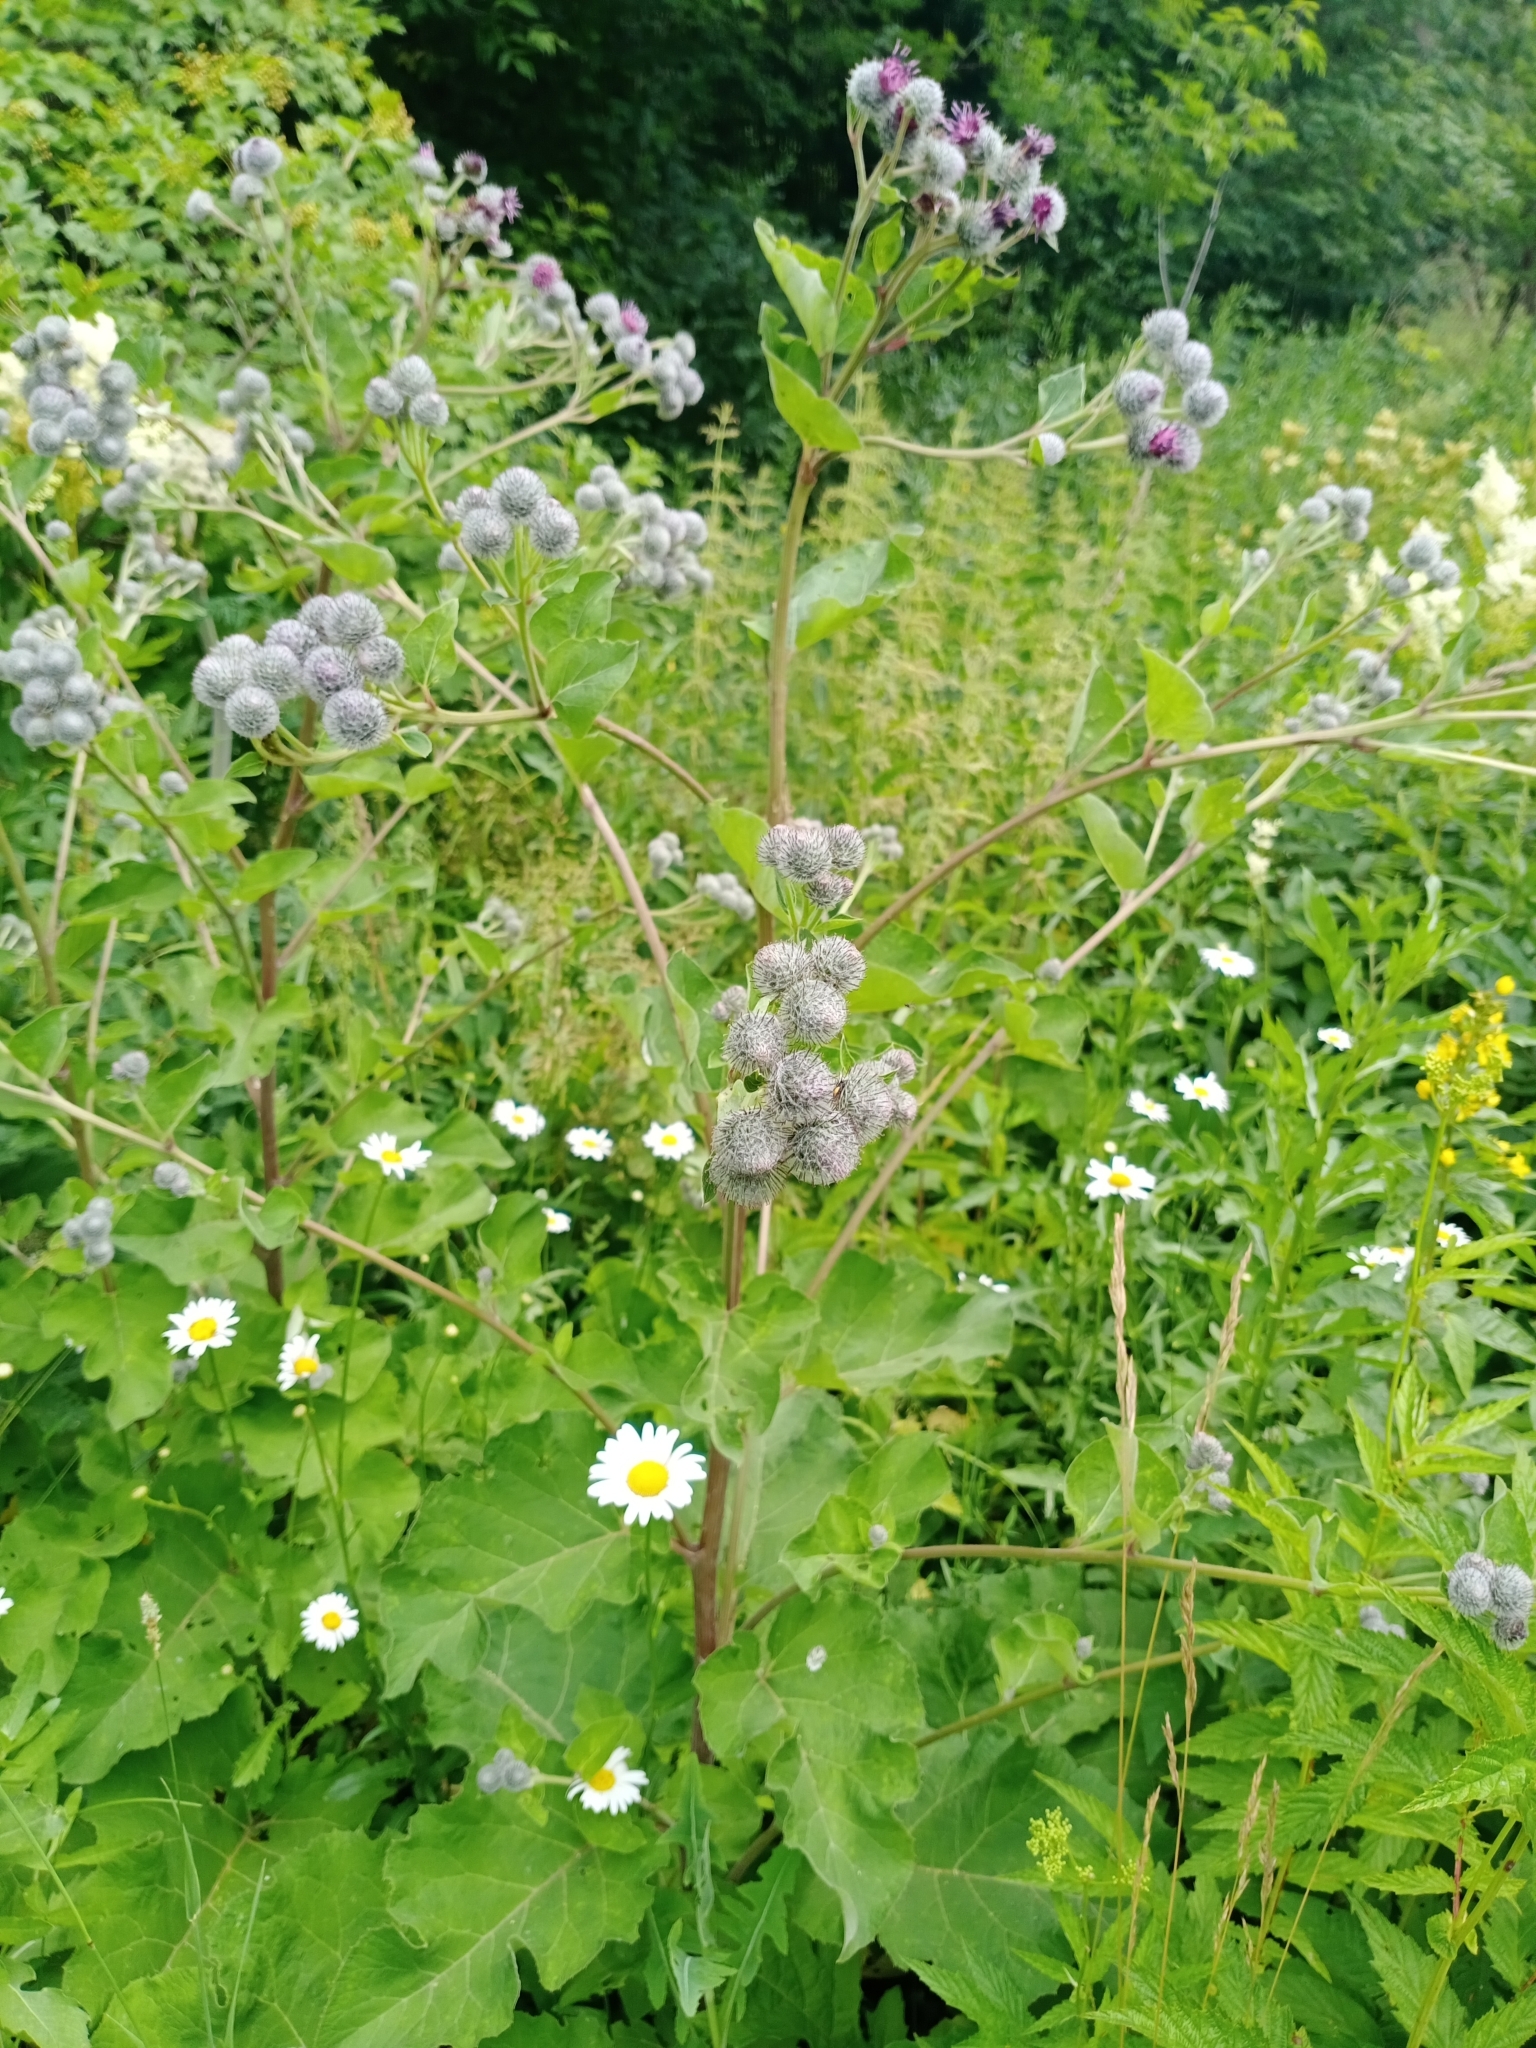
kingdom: Plantae
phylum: Tracheophyta
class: Magnoliopsida
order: Asterales
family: Asteraceae
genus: Arctium
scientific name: Arctium tomentosum
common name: Woolly burdock
